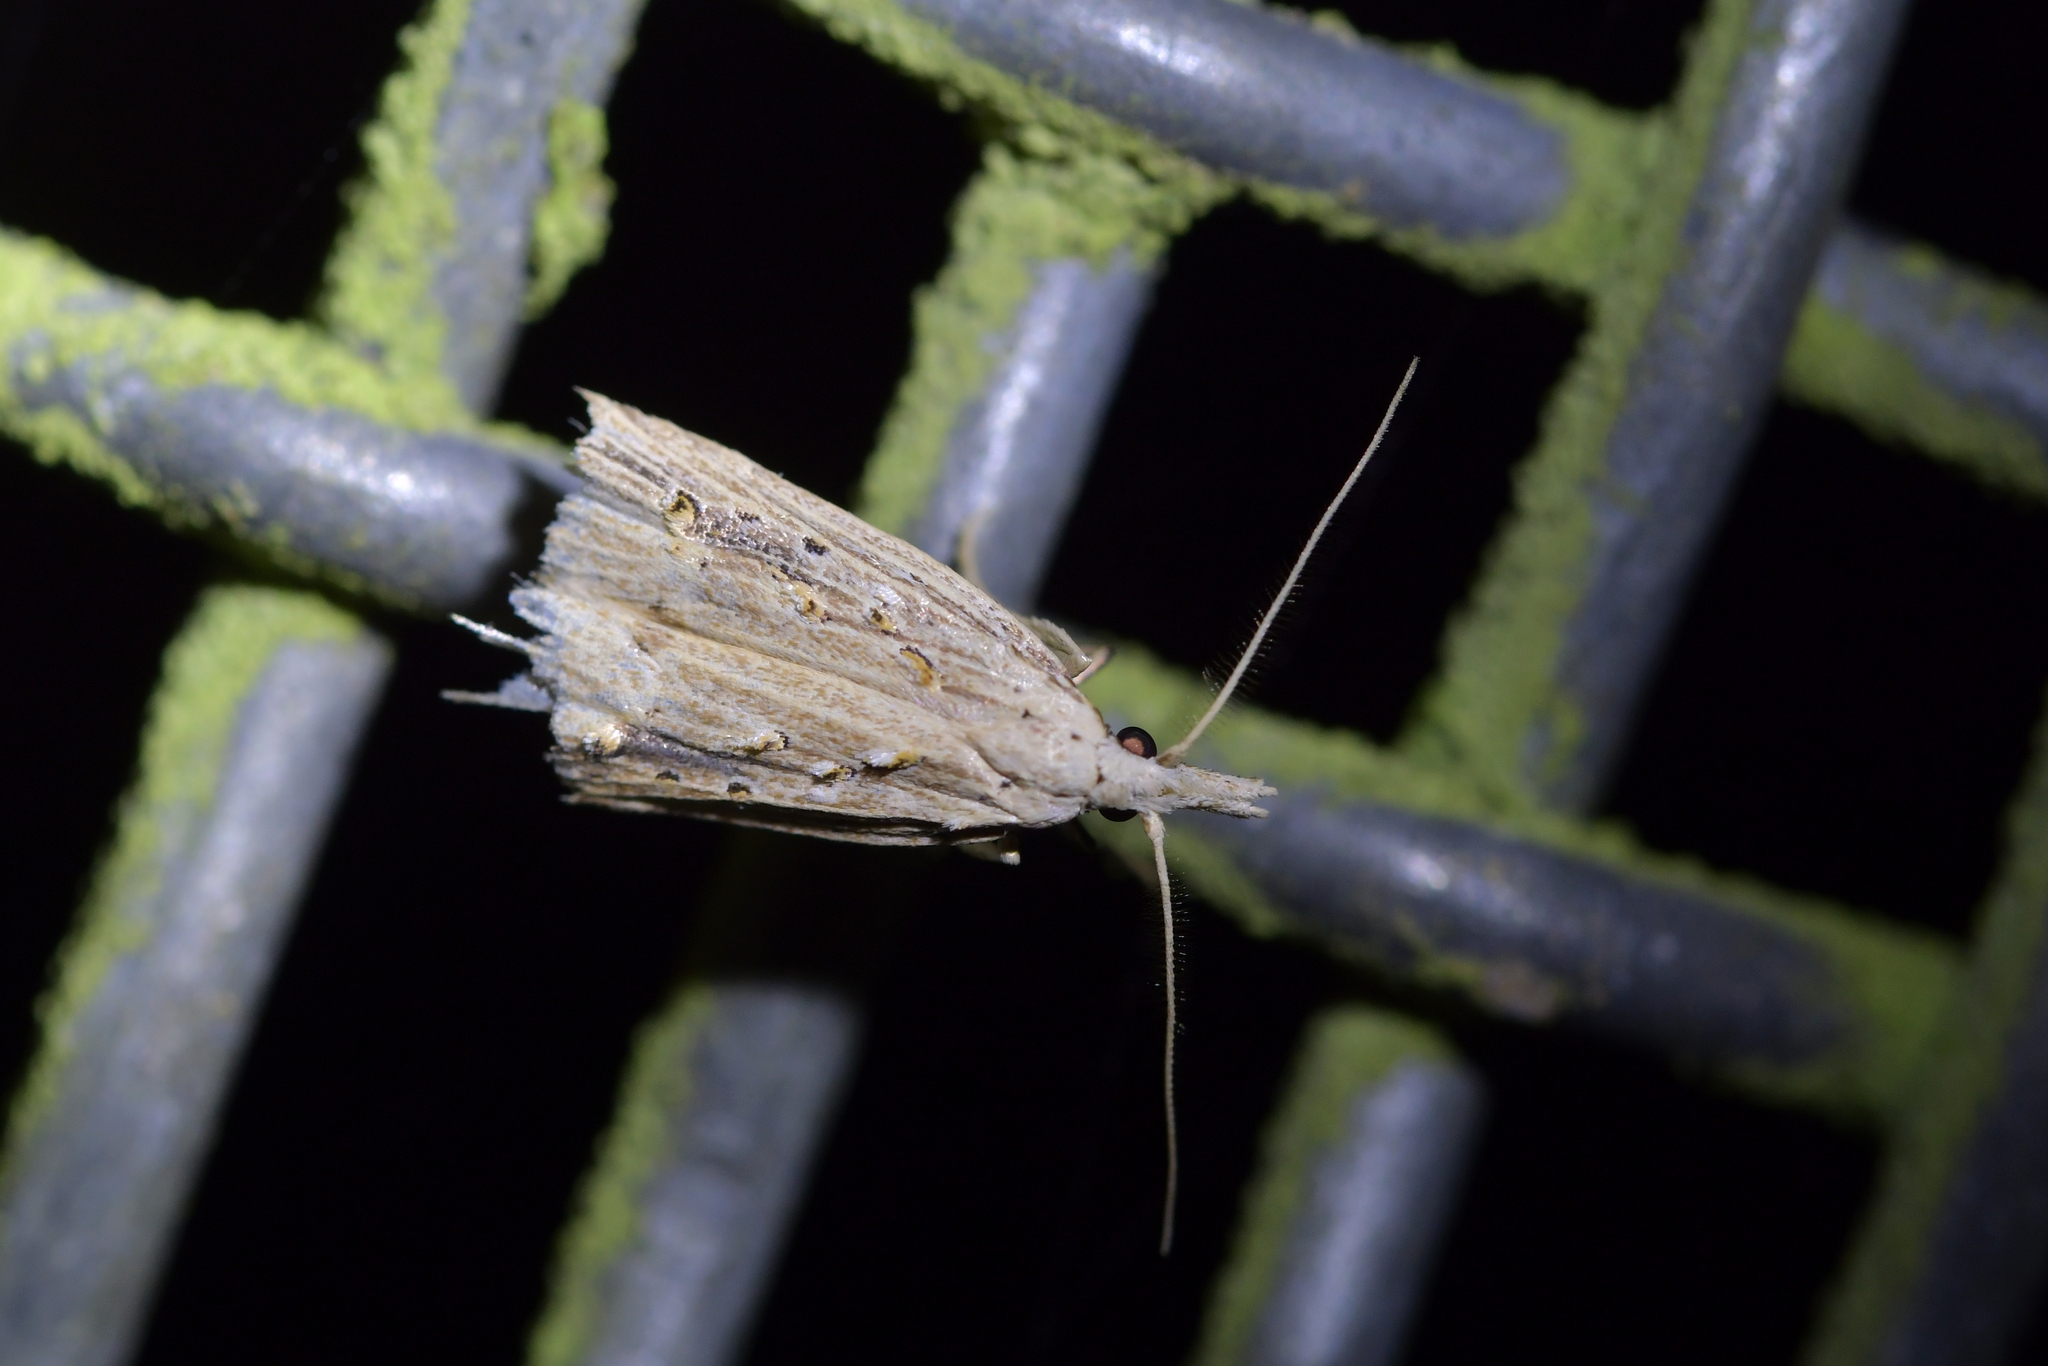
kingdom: Animalia
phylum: Arthropoda
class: Insecta
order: Lepidoptera
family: Carposinidae
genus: Carposina
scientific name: Carposina Heterocrossa exochana
